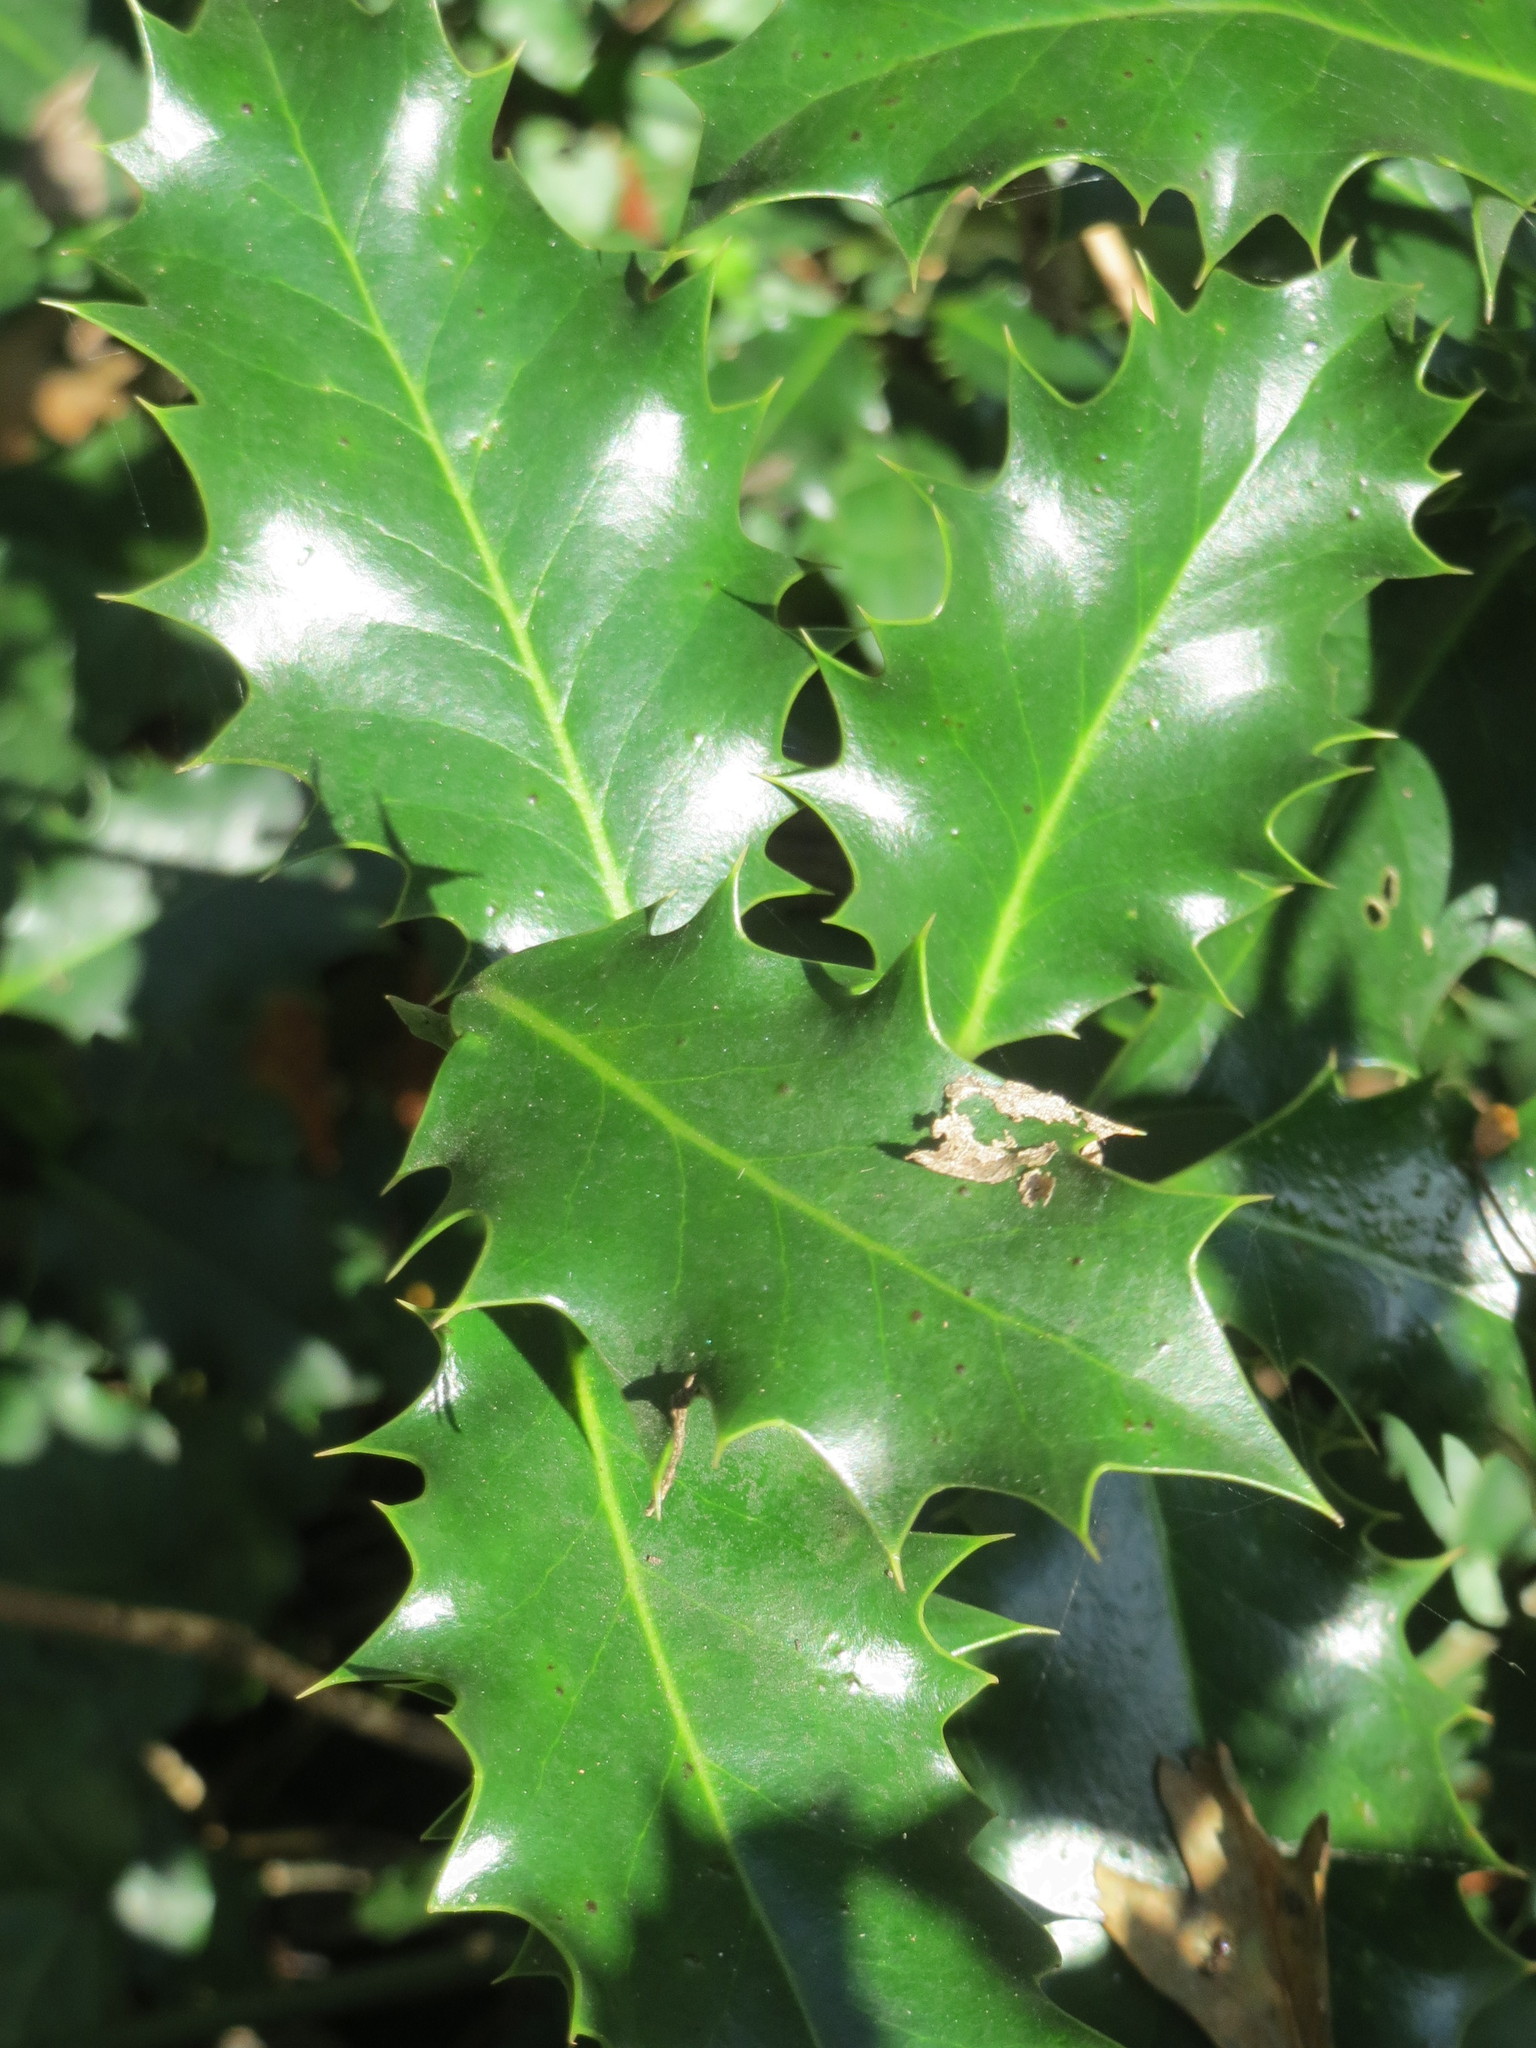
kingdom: Plantae
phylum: Tracheophyta
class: Magnoliopsida
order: Aquifoliales
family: Aquifoliaceae
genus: Ilex
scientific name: Ilex aquifolium
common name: English holly
